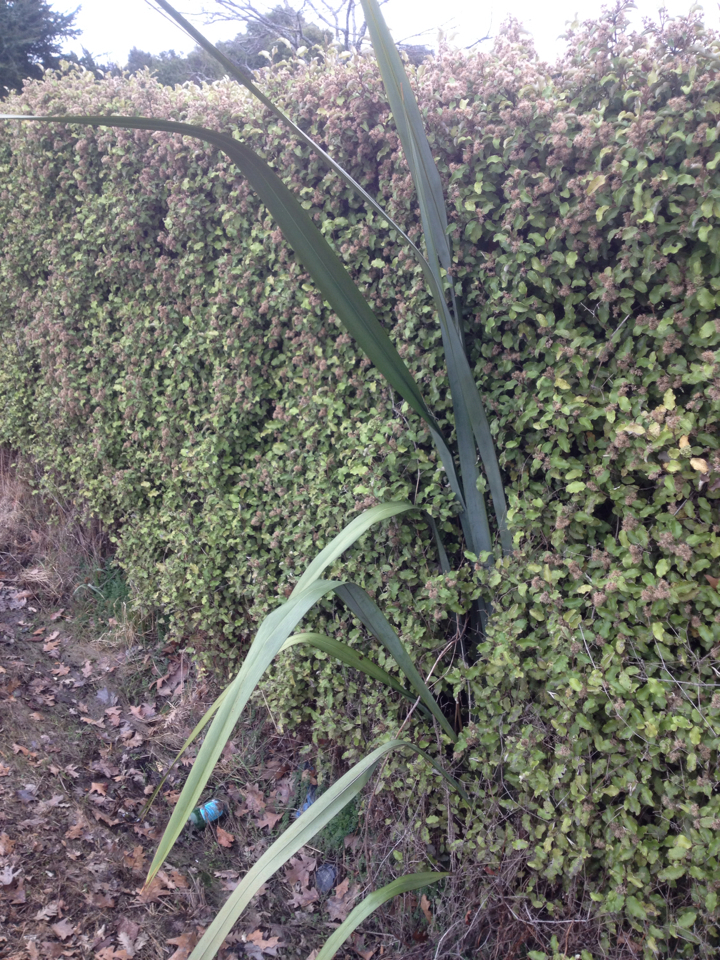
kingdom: Plantae
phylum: Tracheophyta
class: Liliopsida
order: Asparagales
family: Asphodelaceae
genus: Phormium
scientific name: Phormium tenax
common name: New zealand flax
